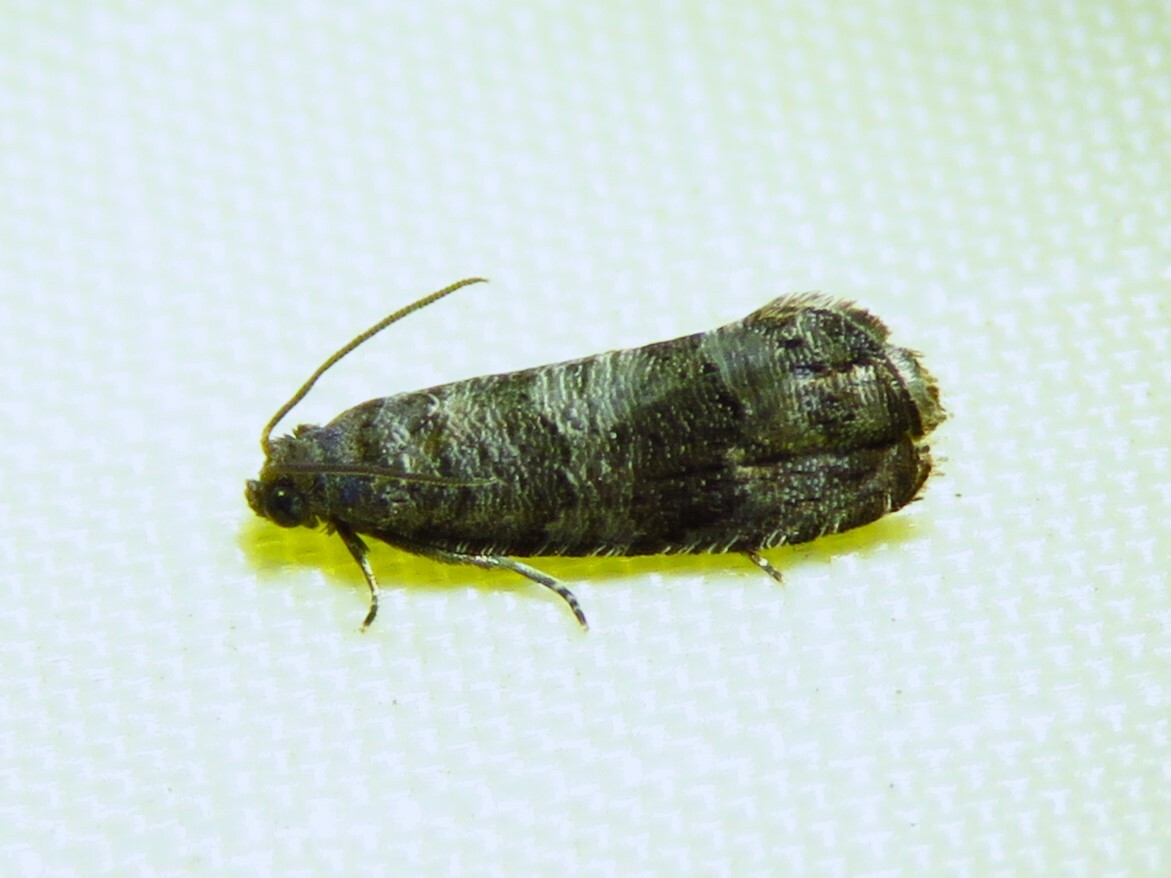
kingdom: Animalia
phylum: Arthropoda
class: Insecta
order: Lepidoptera
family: Noctuidae
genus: Aspila
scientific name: Aspila
